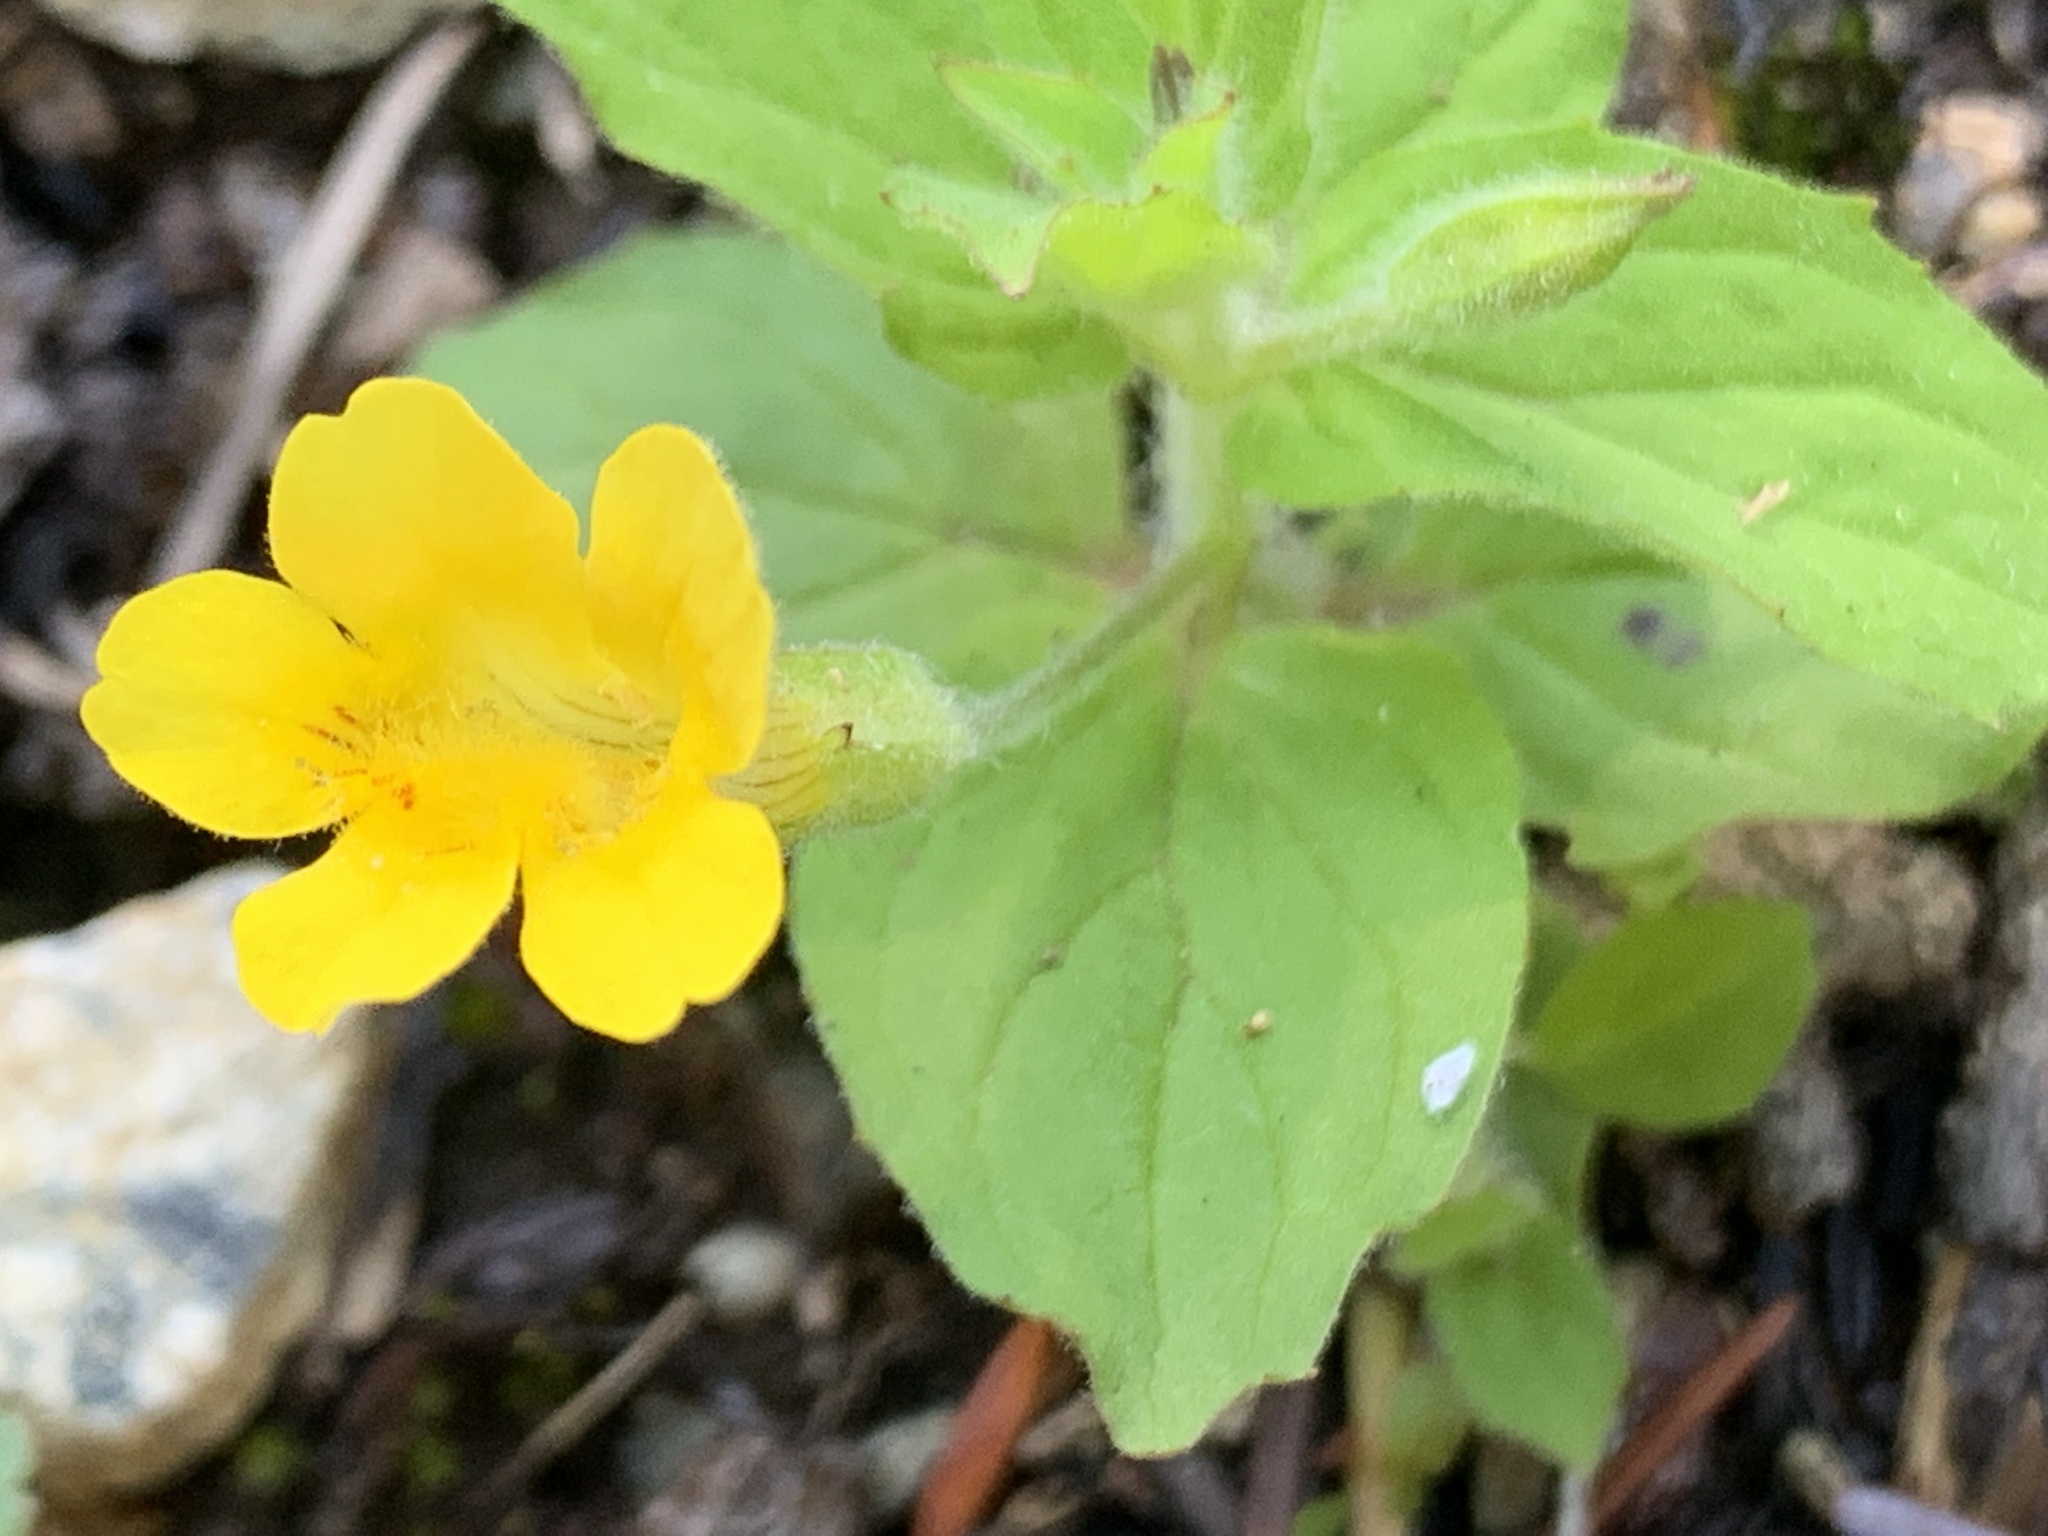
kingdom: Plantae
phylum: Tracheophyta
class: Magnoliopsida
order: Lamiales
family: Phrymaceae
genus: Erythranthe
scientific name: Erythranthe ptilota
